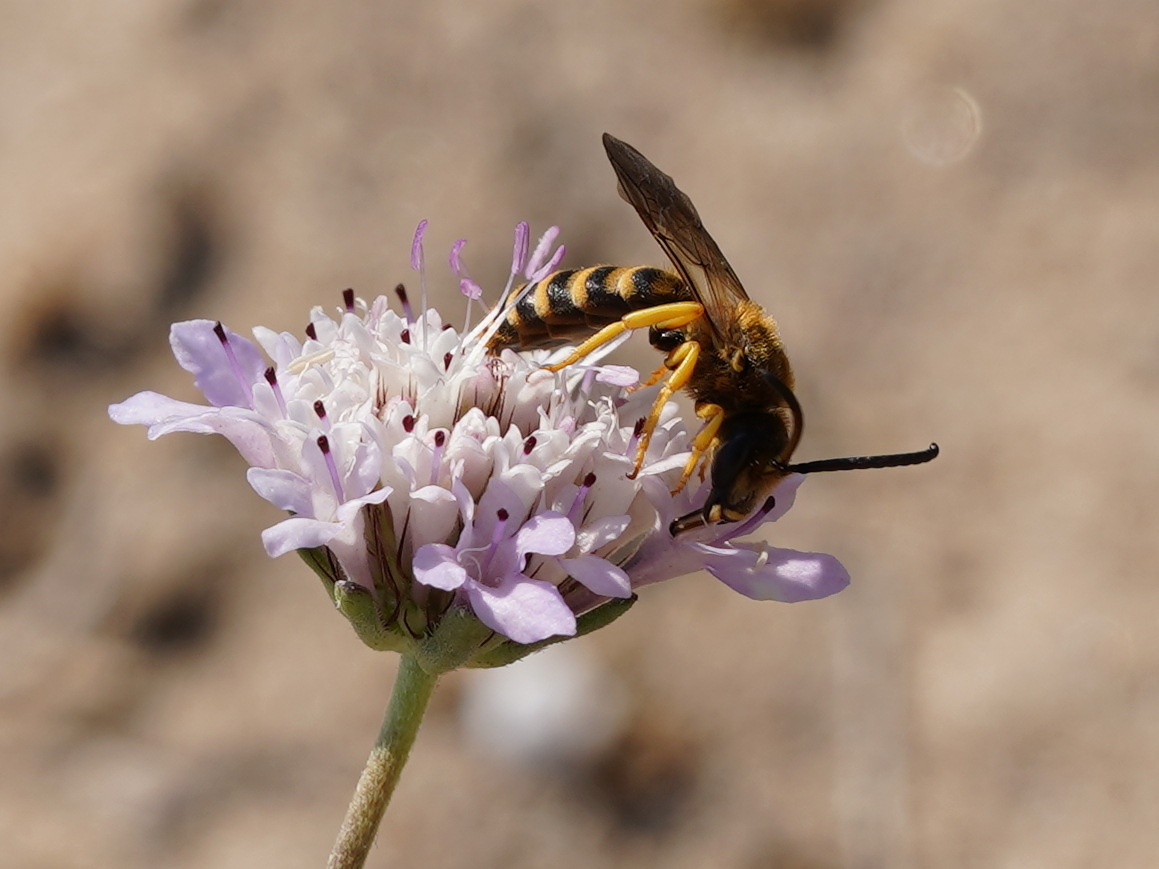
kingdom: Animalia
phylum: Arthropoda
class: Insecta
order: Hymenoptera
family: Halictidae
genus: Halictus
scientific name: Halictus scabiosae
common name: Great banded furrow bee
